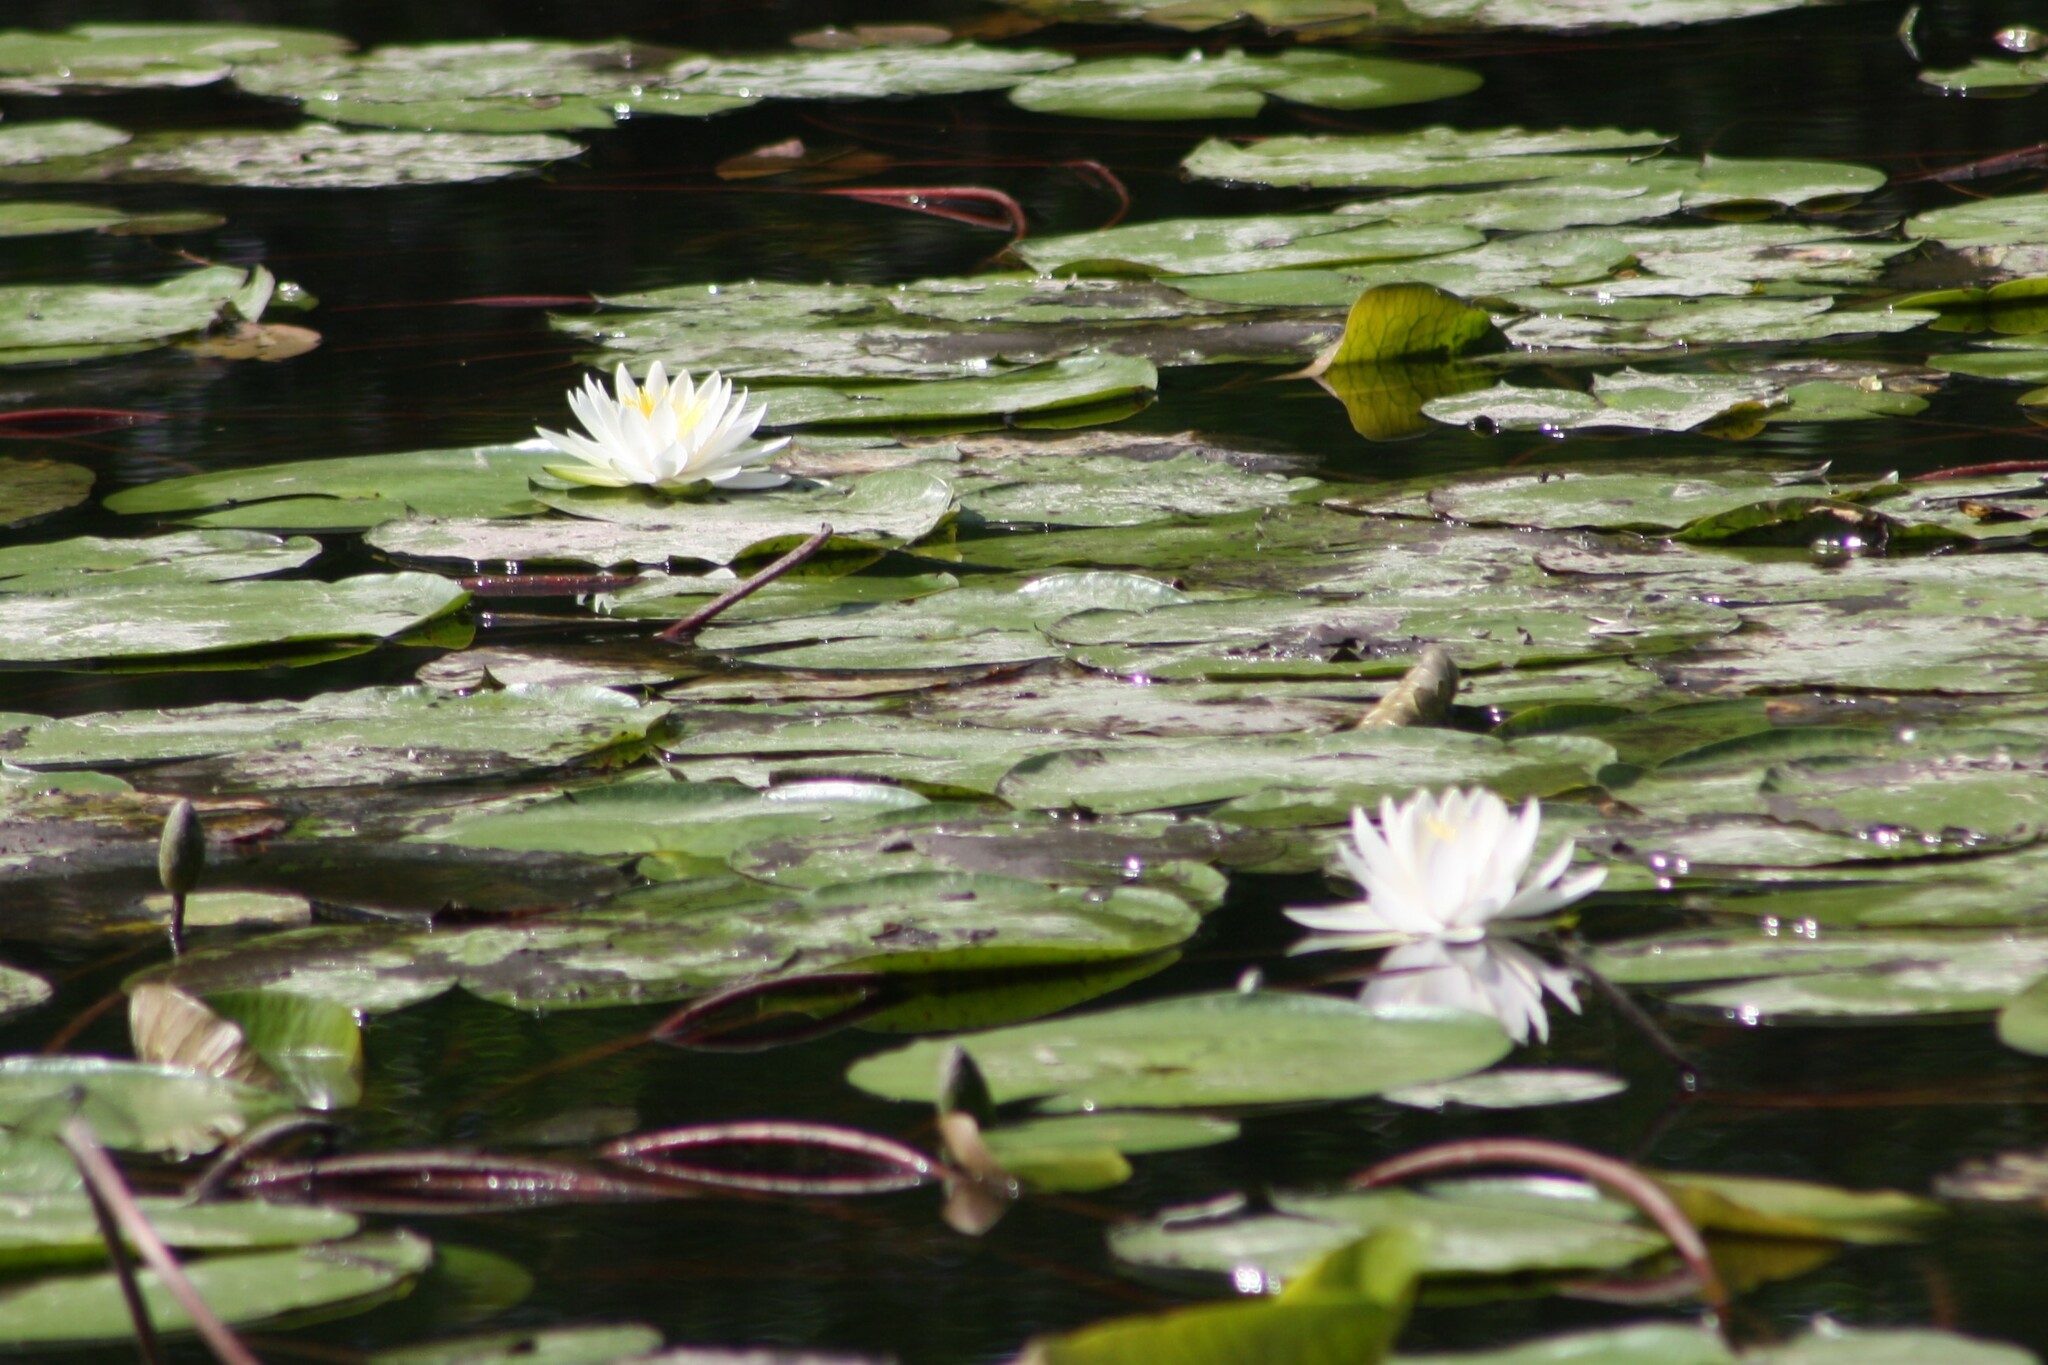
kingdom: Plantae
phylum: Tracheophyta
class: Magnoliopsida
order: Nymphaeales
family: Nymphaeaceae
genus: Nymphaea
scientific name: Nymphaea odorata
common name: Fragrant water-lily
